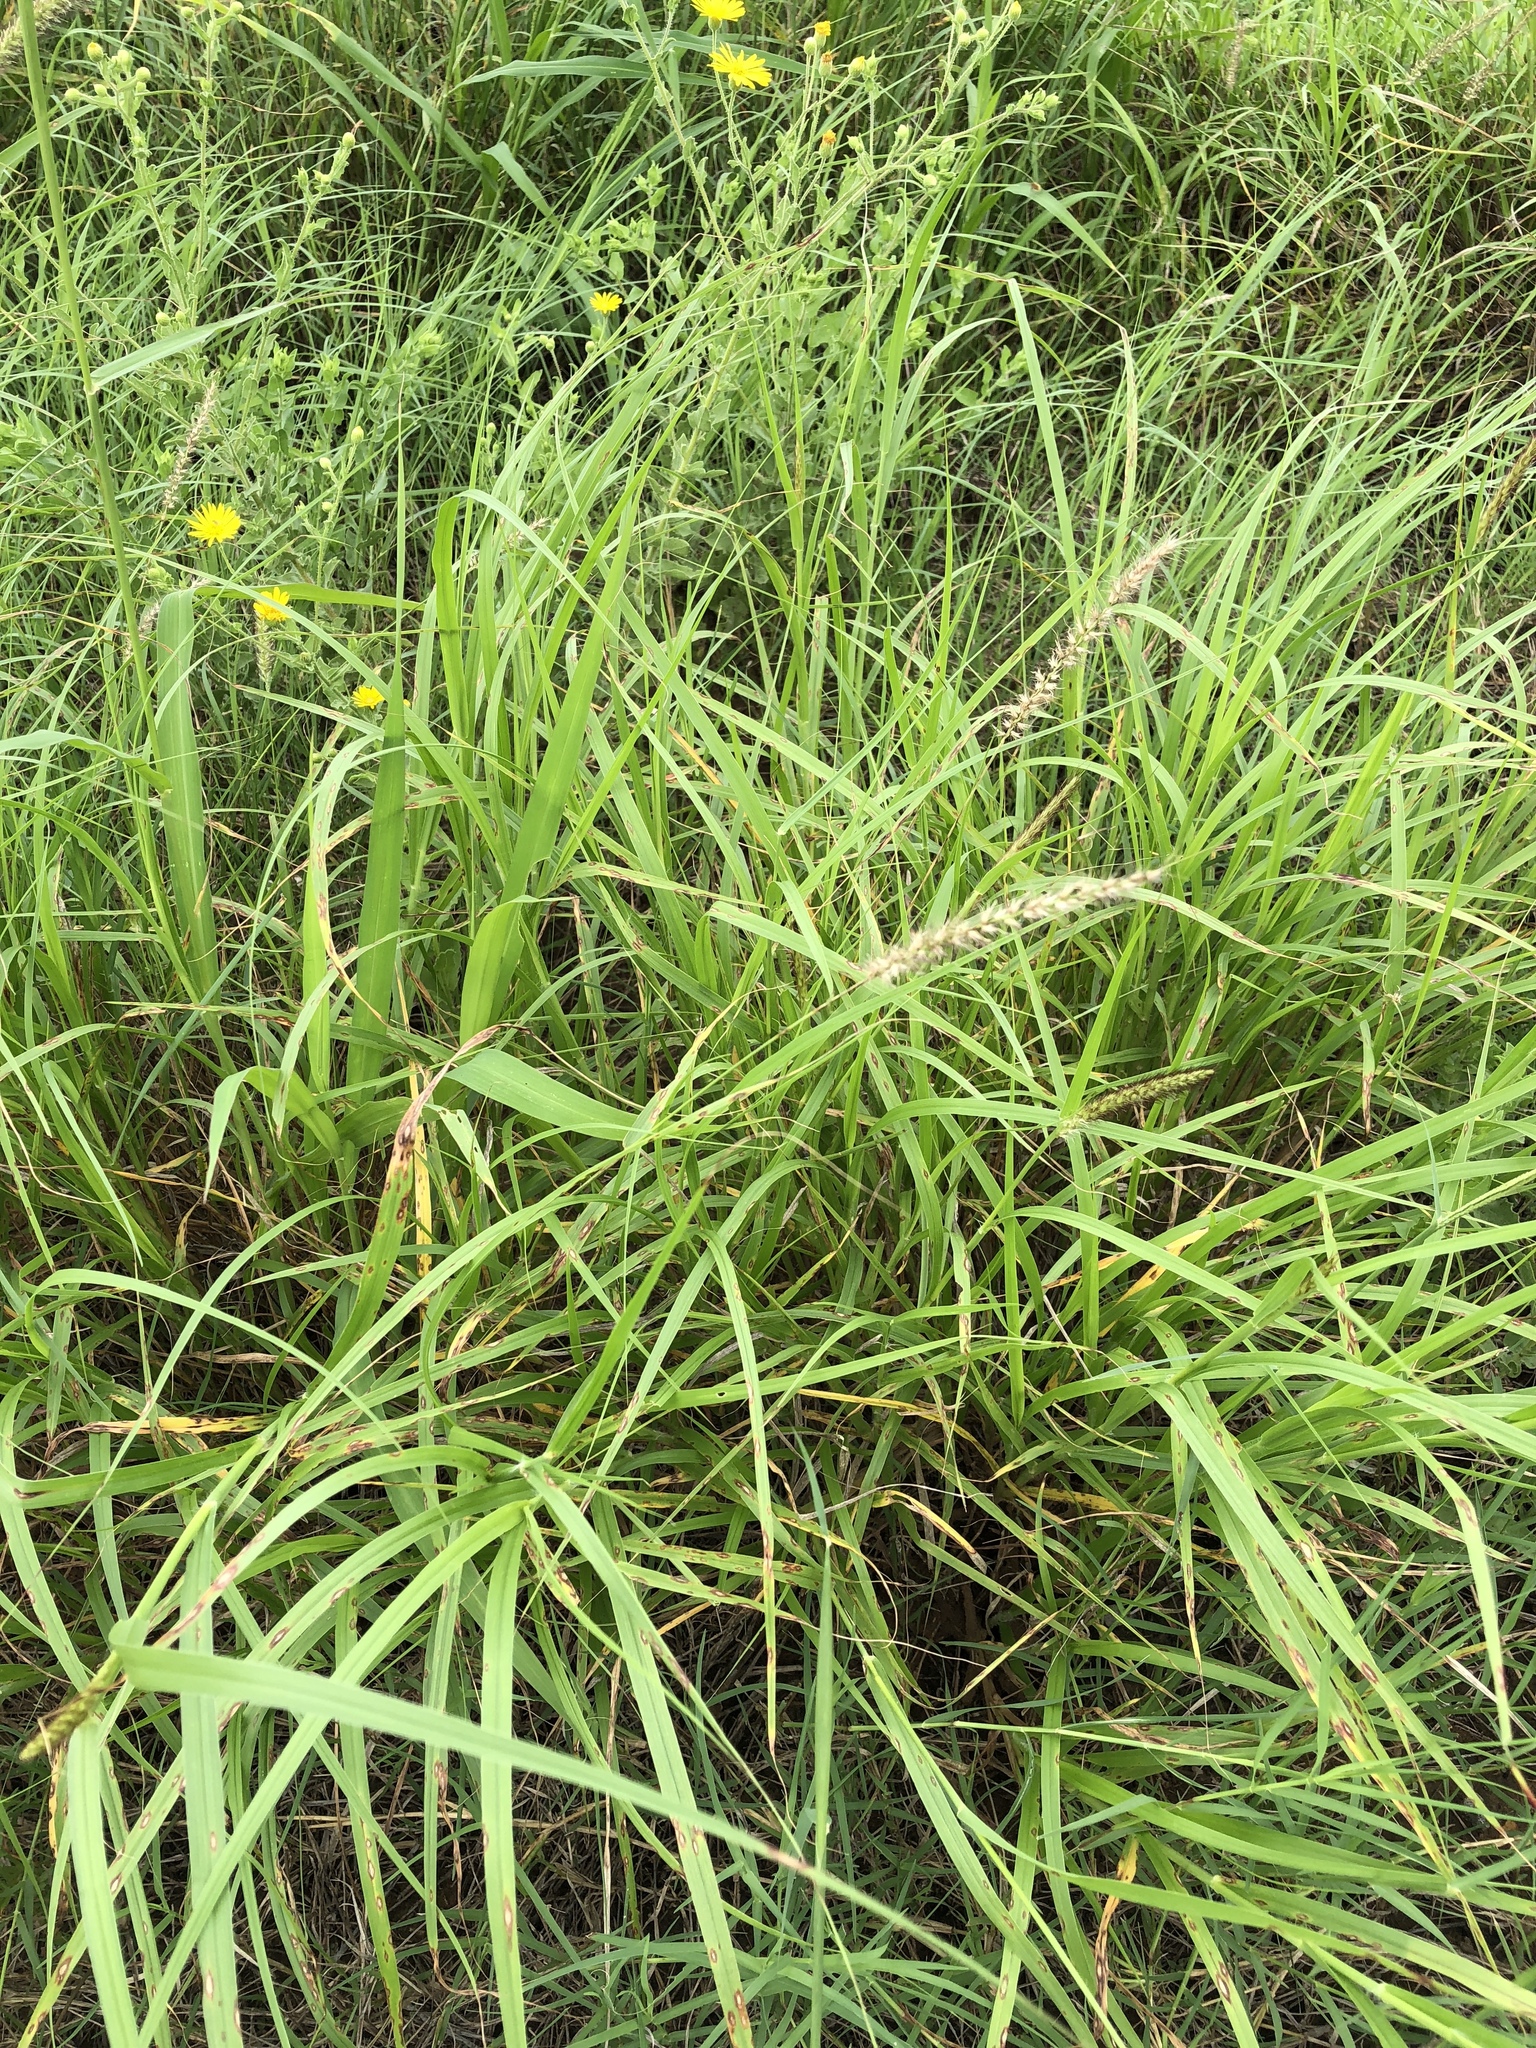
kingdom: Plantae
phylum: Tracheophyta
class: Liliopsida
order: Poales
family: Poaceae
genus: Cenchrus
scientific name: Cenchrus ciliaris
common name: Buffelgrass
